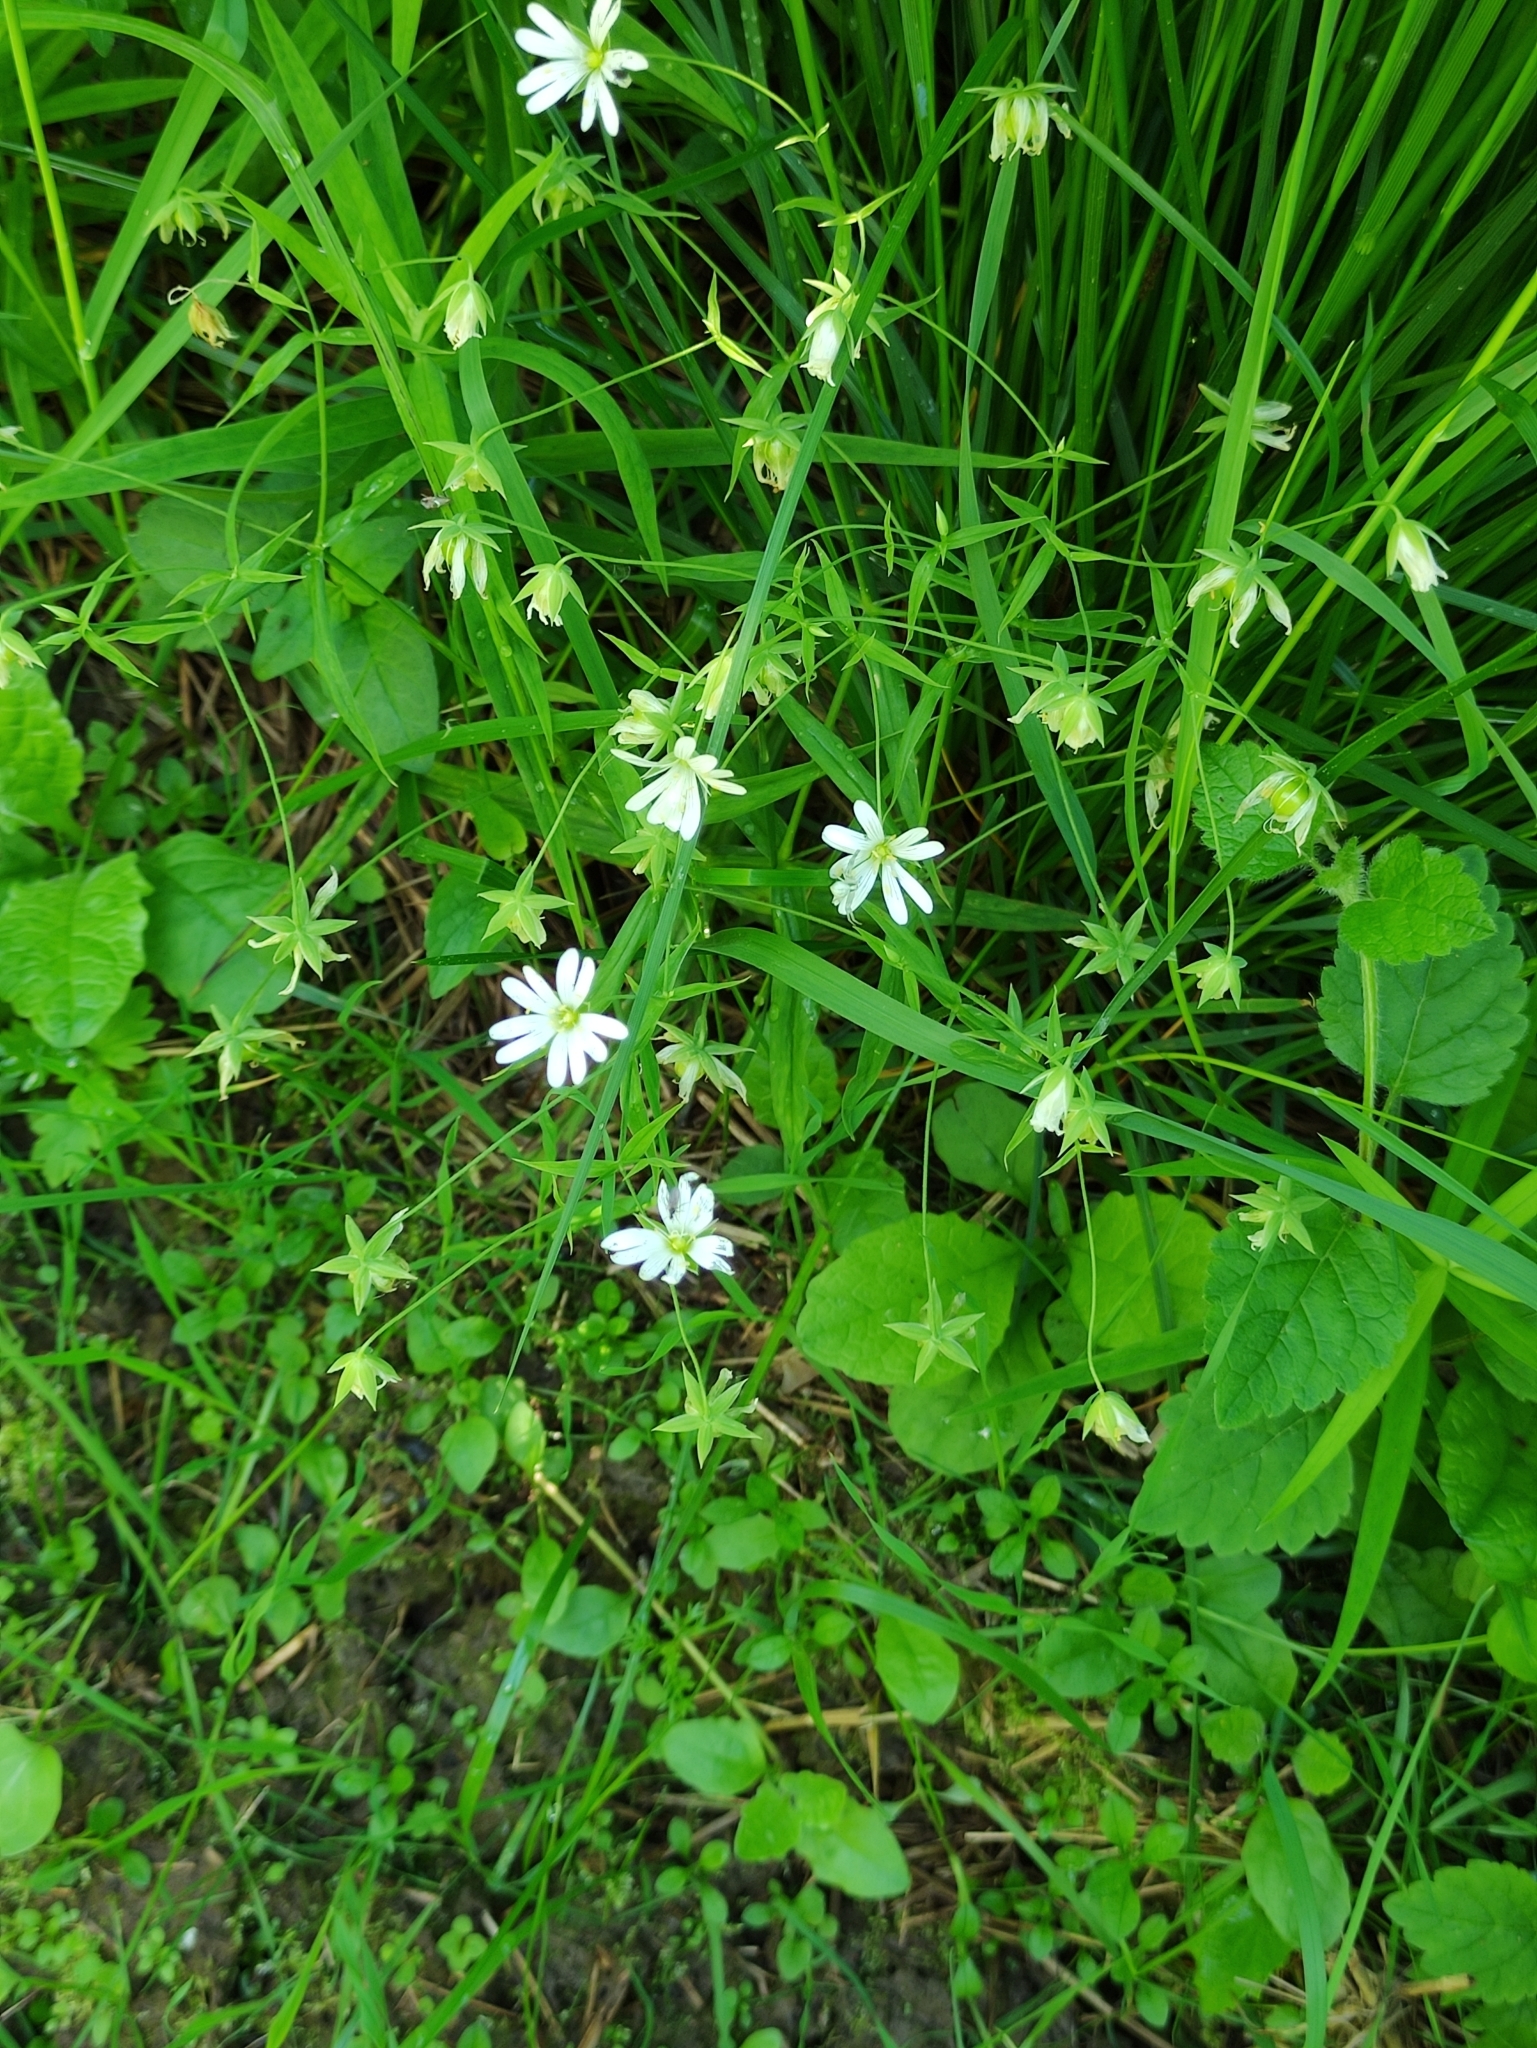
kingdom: Plantae
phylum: Tracheophyta
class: Magnoliopsida
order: Caryophyllales
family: Caryophyllaceae
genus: Rabelera
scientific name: Rabelera holostea
